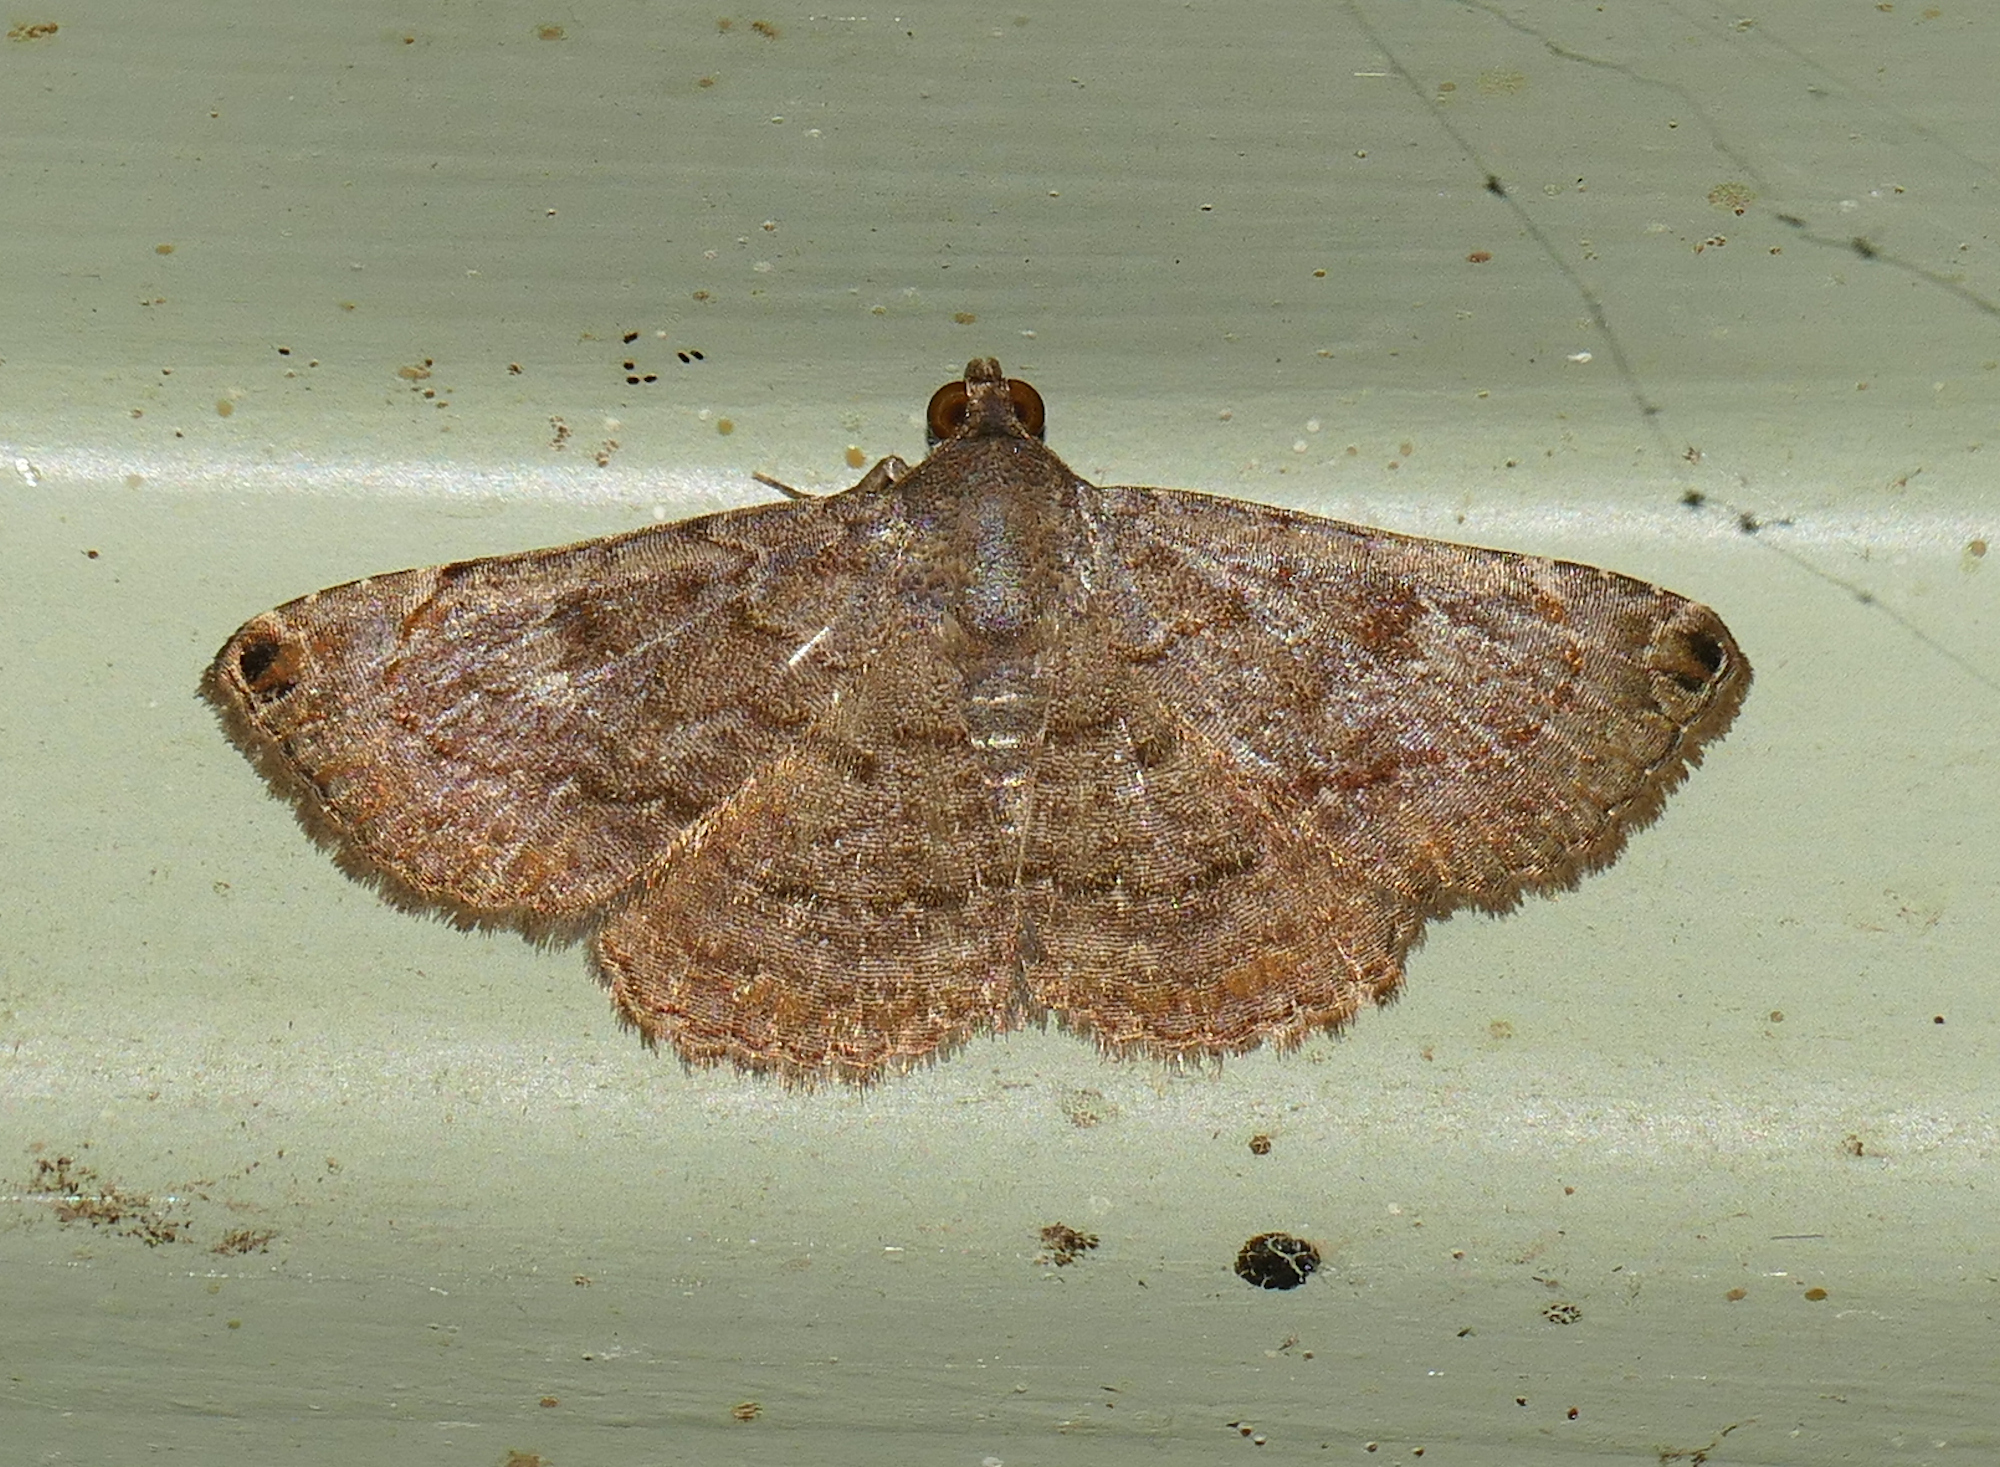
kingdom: Animalia
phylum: Arthropoda
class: Insecta
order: Lepidoptera
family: Erebidae
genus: Toxonprucha
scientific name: Toxonprucha pardalis
